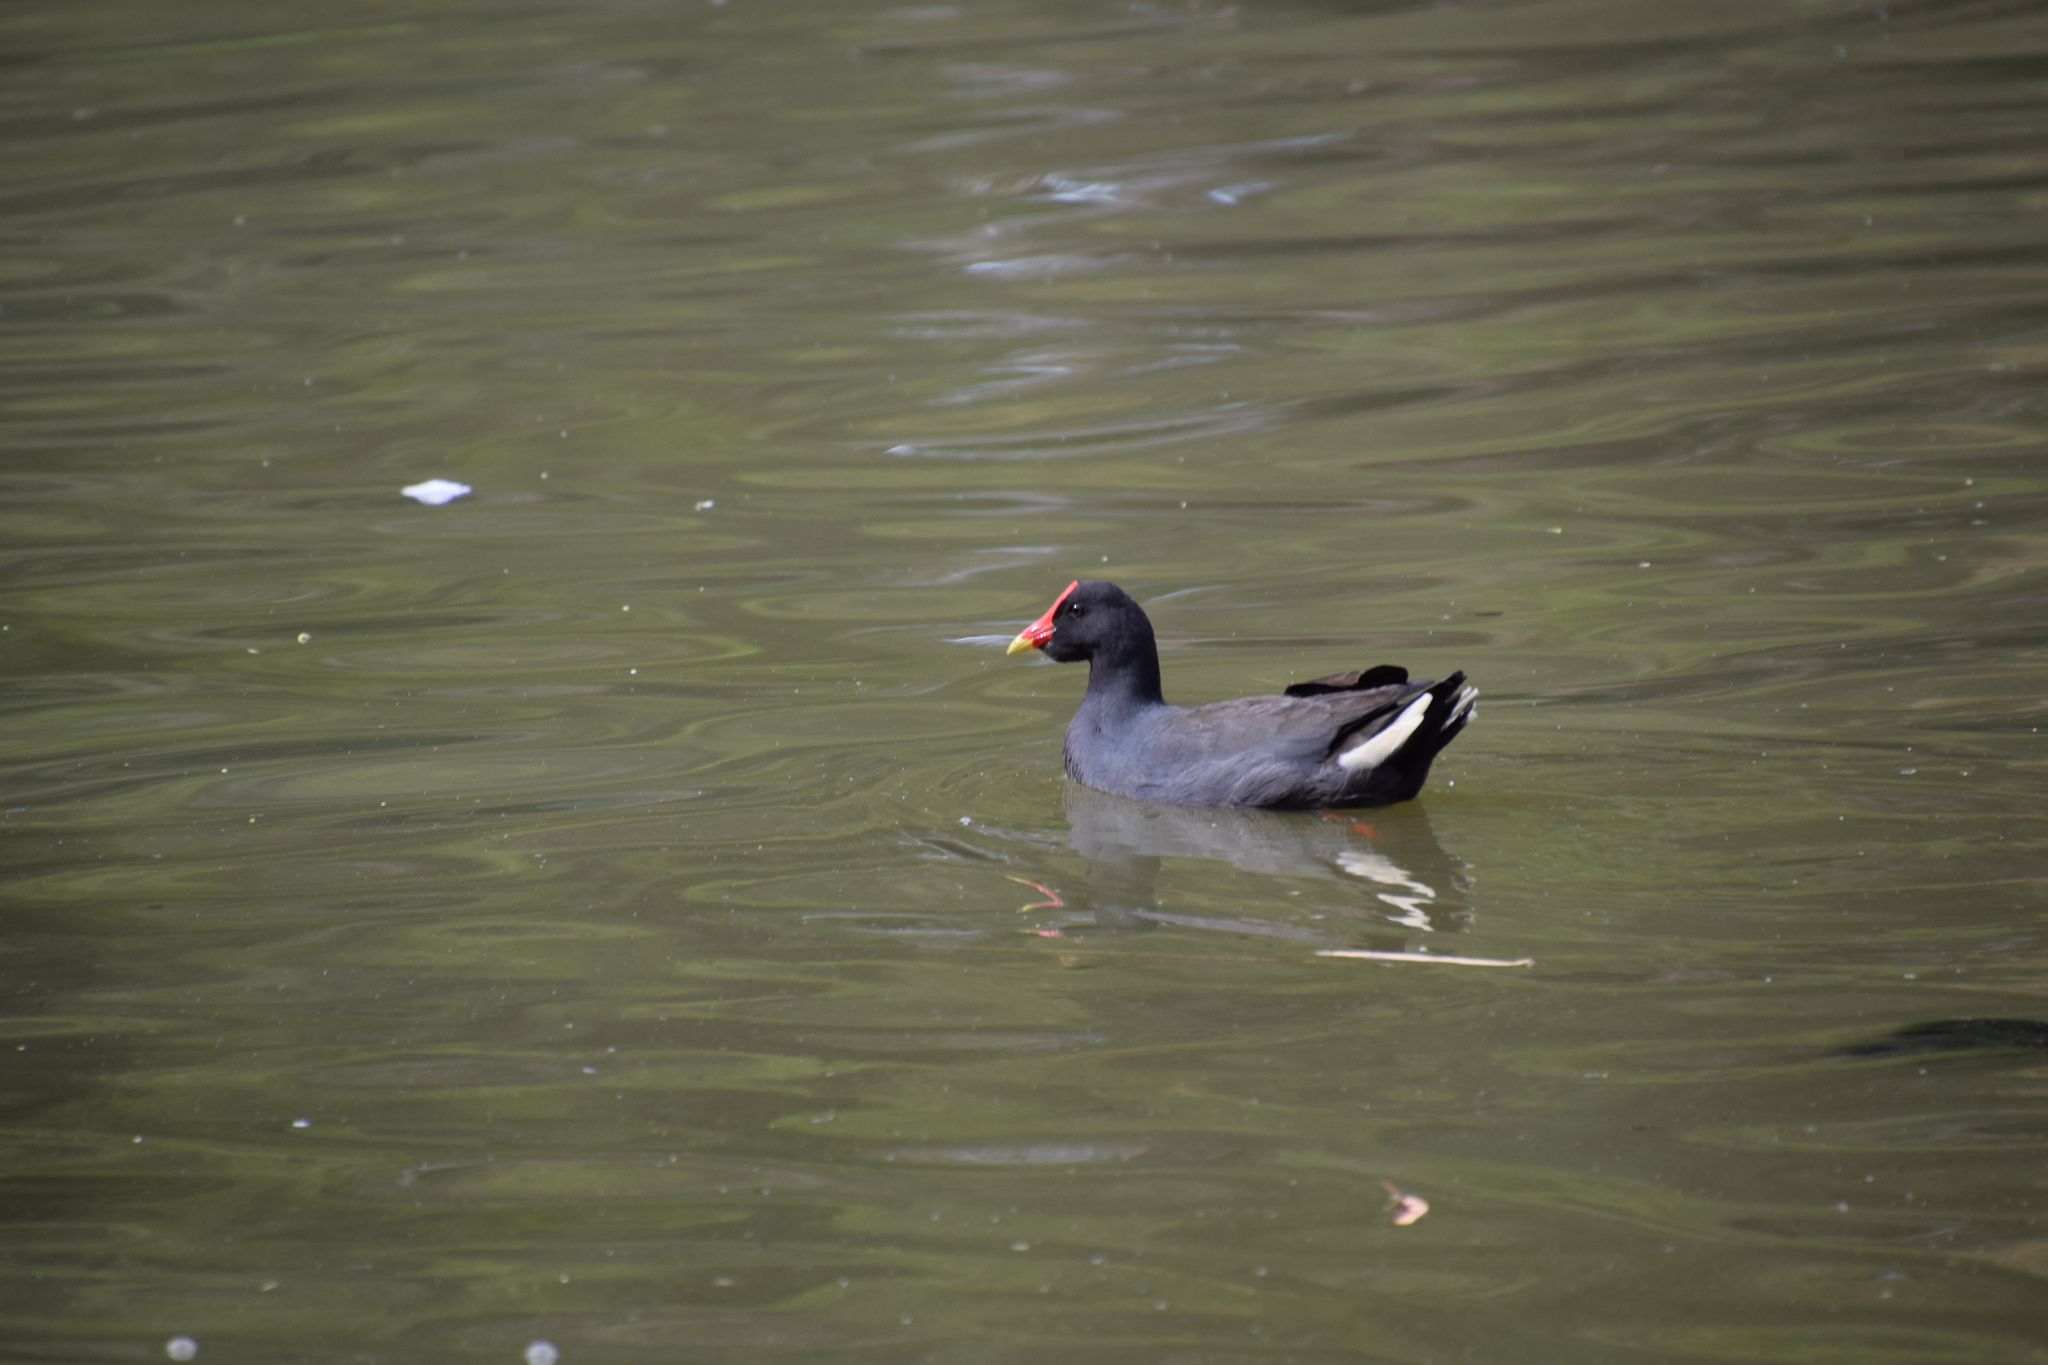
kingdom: Animalia
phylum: Chordata
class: Aves
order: Gruiformes
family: Rallidae
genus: Gallinula
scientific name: Gallinula tenebrosa
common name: Dusky moorhen
